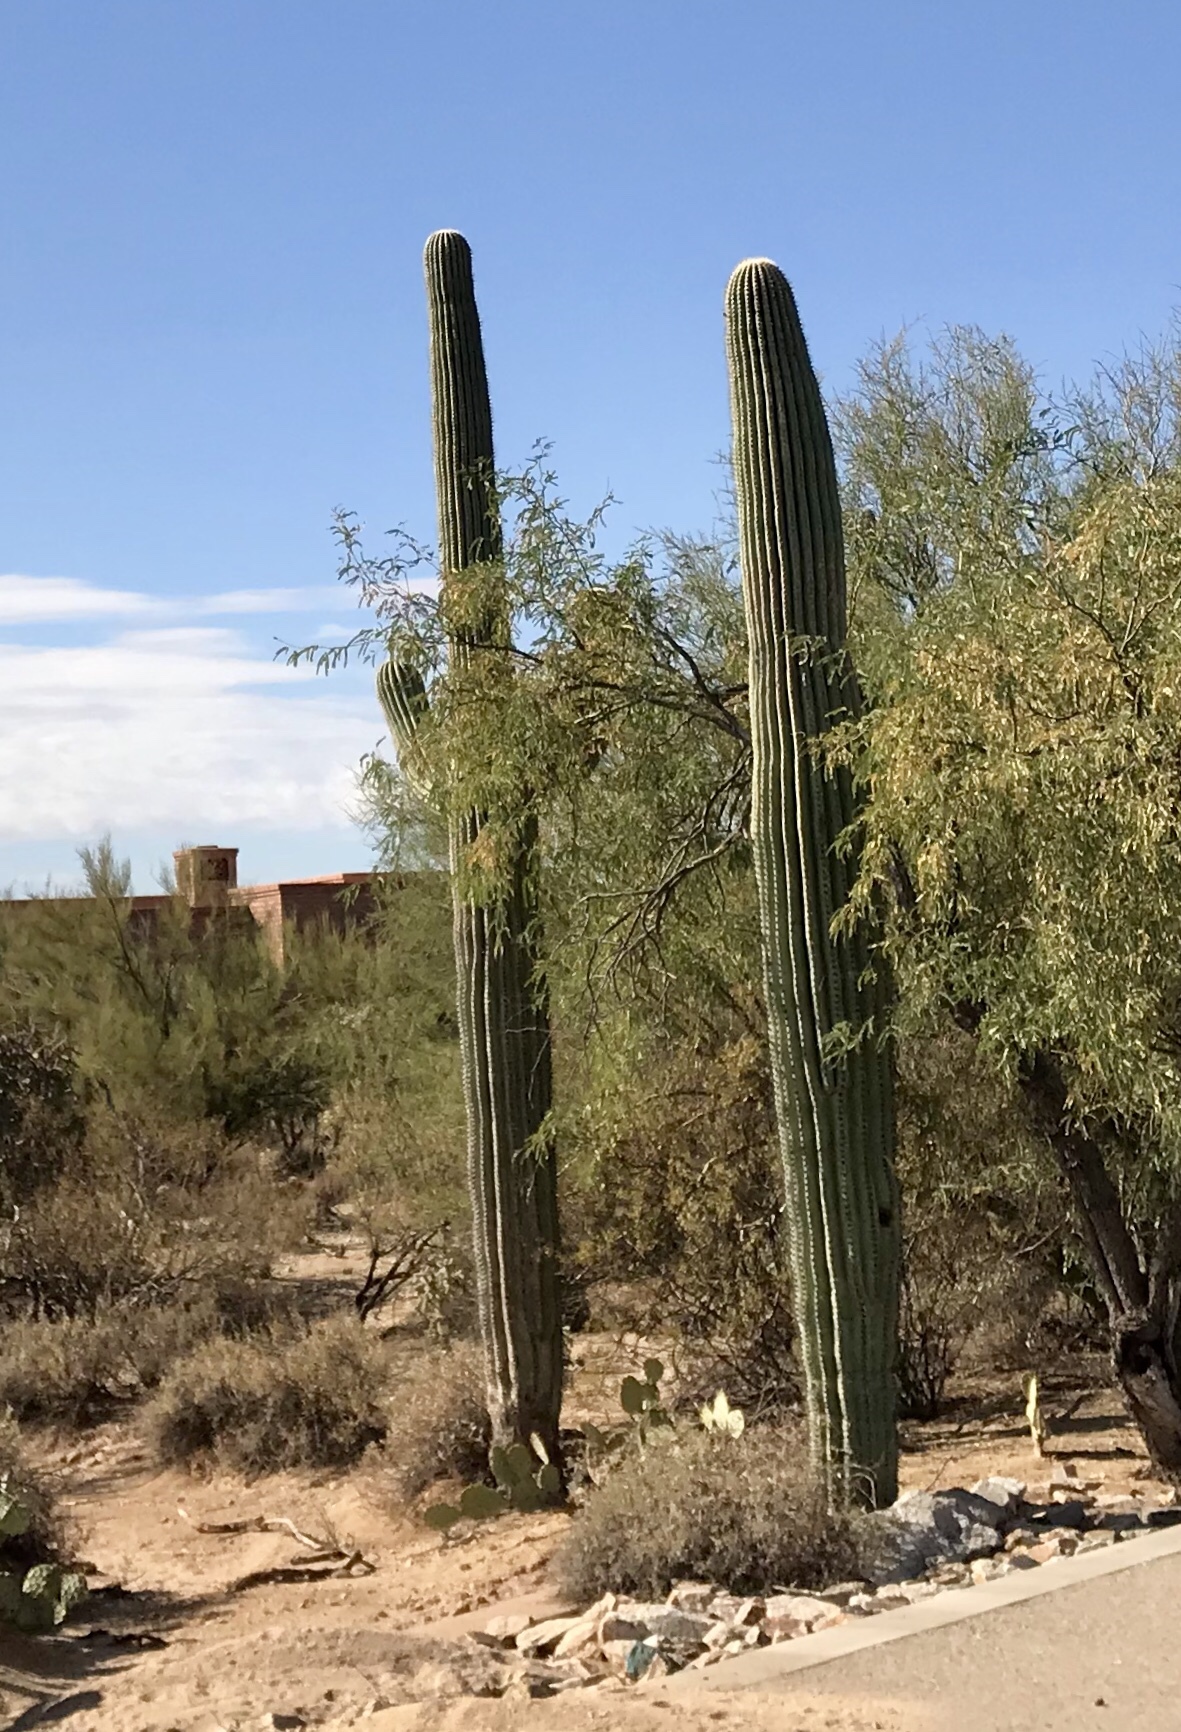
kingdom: Plantae
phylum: Tracheophyta
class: Magnoliopsida
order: Caryophyllales
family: Cactaceae
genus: Carnegiea
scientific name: Carnegiea gigantea
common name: Saguaro
